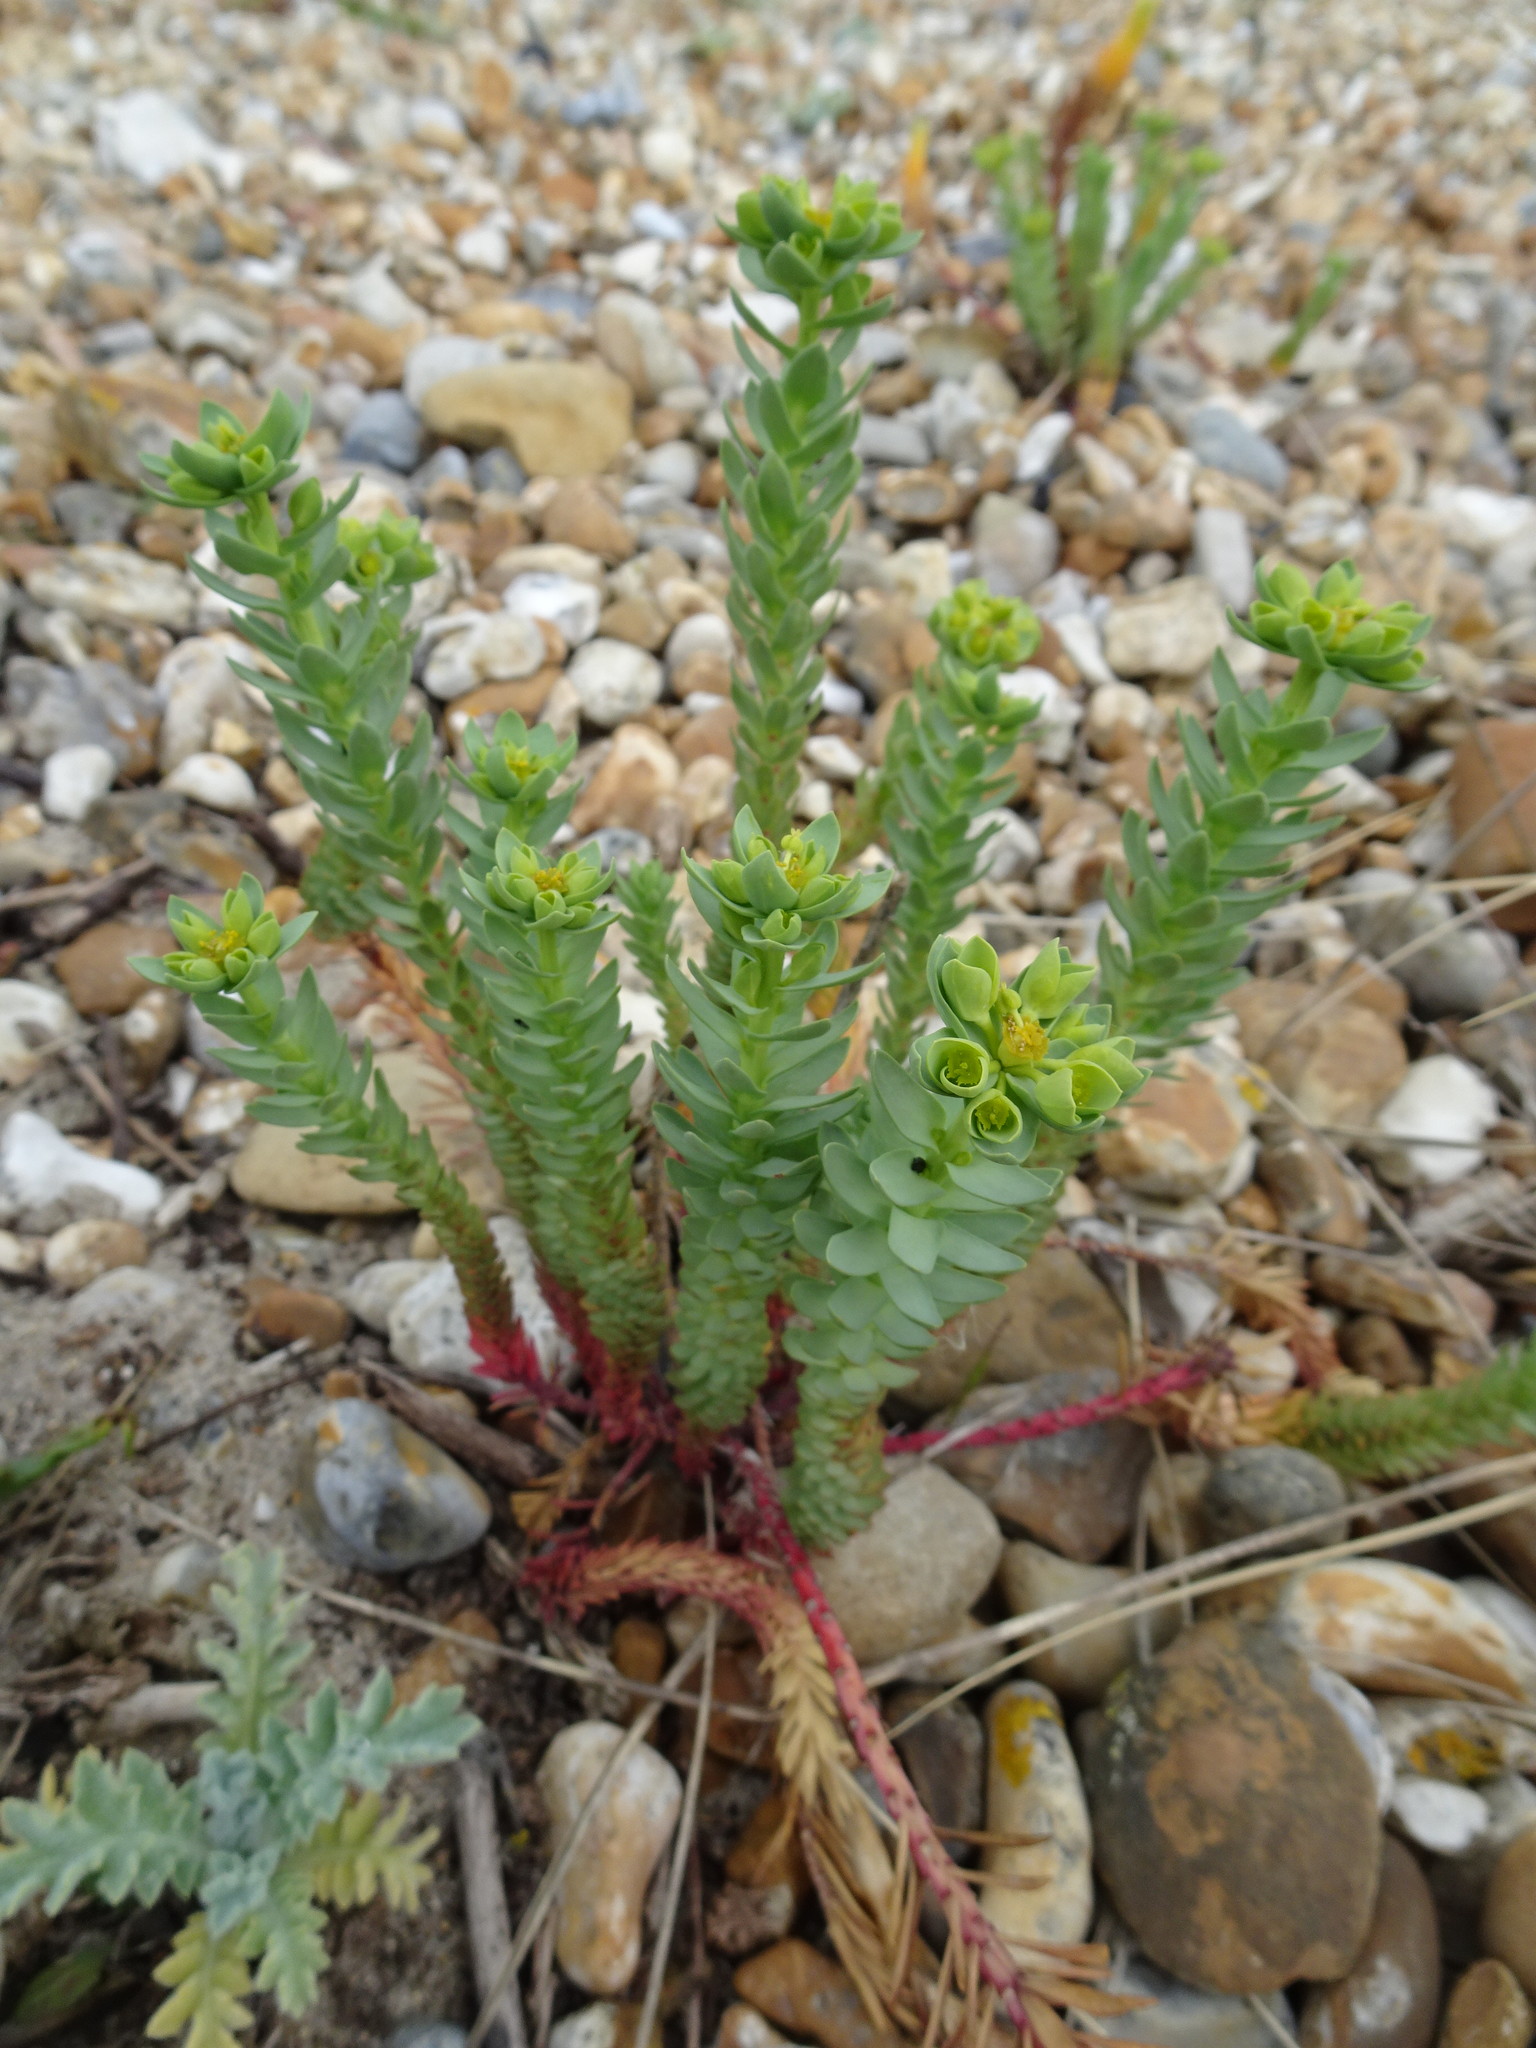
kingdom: Plantae
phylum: Tracheophyta
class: Magnoliopsida
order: Malpighiales
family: Euphorbiaceae
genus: Euphorbia
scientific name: Euphorbia paralias
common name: Sea spurge
